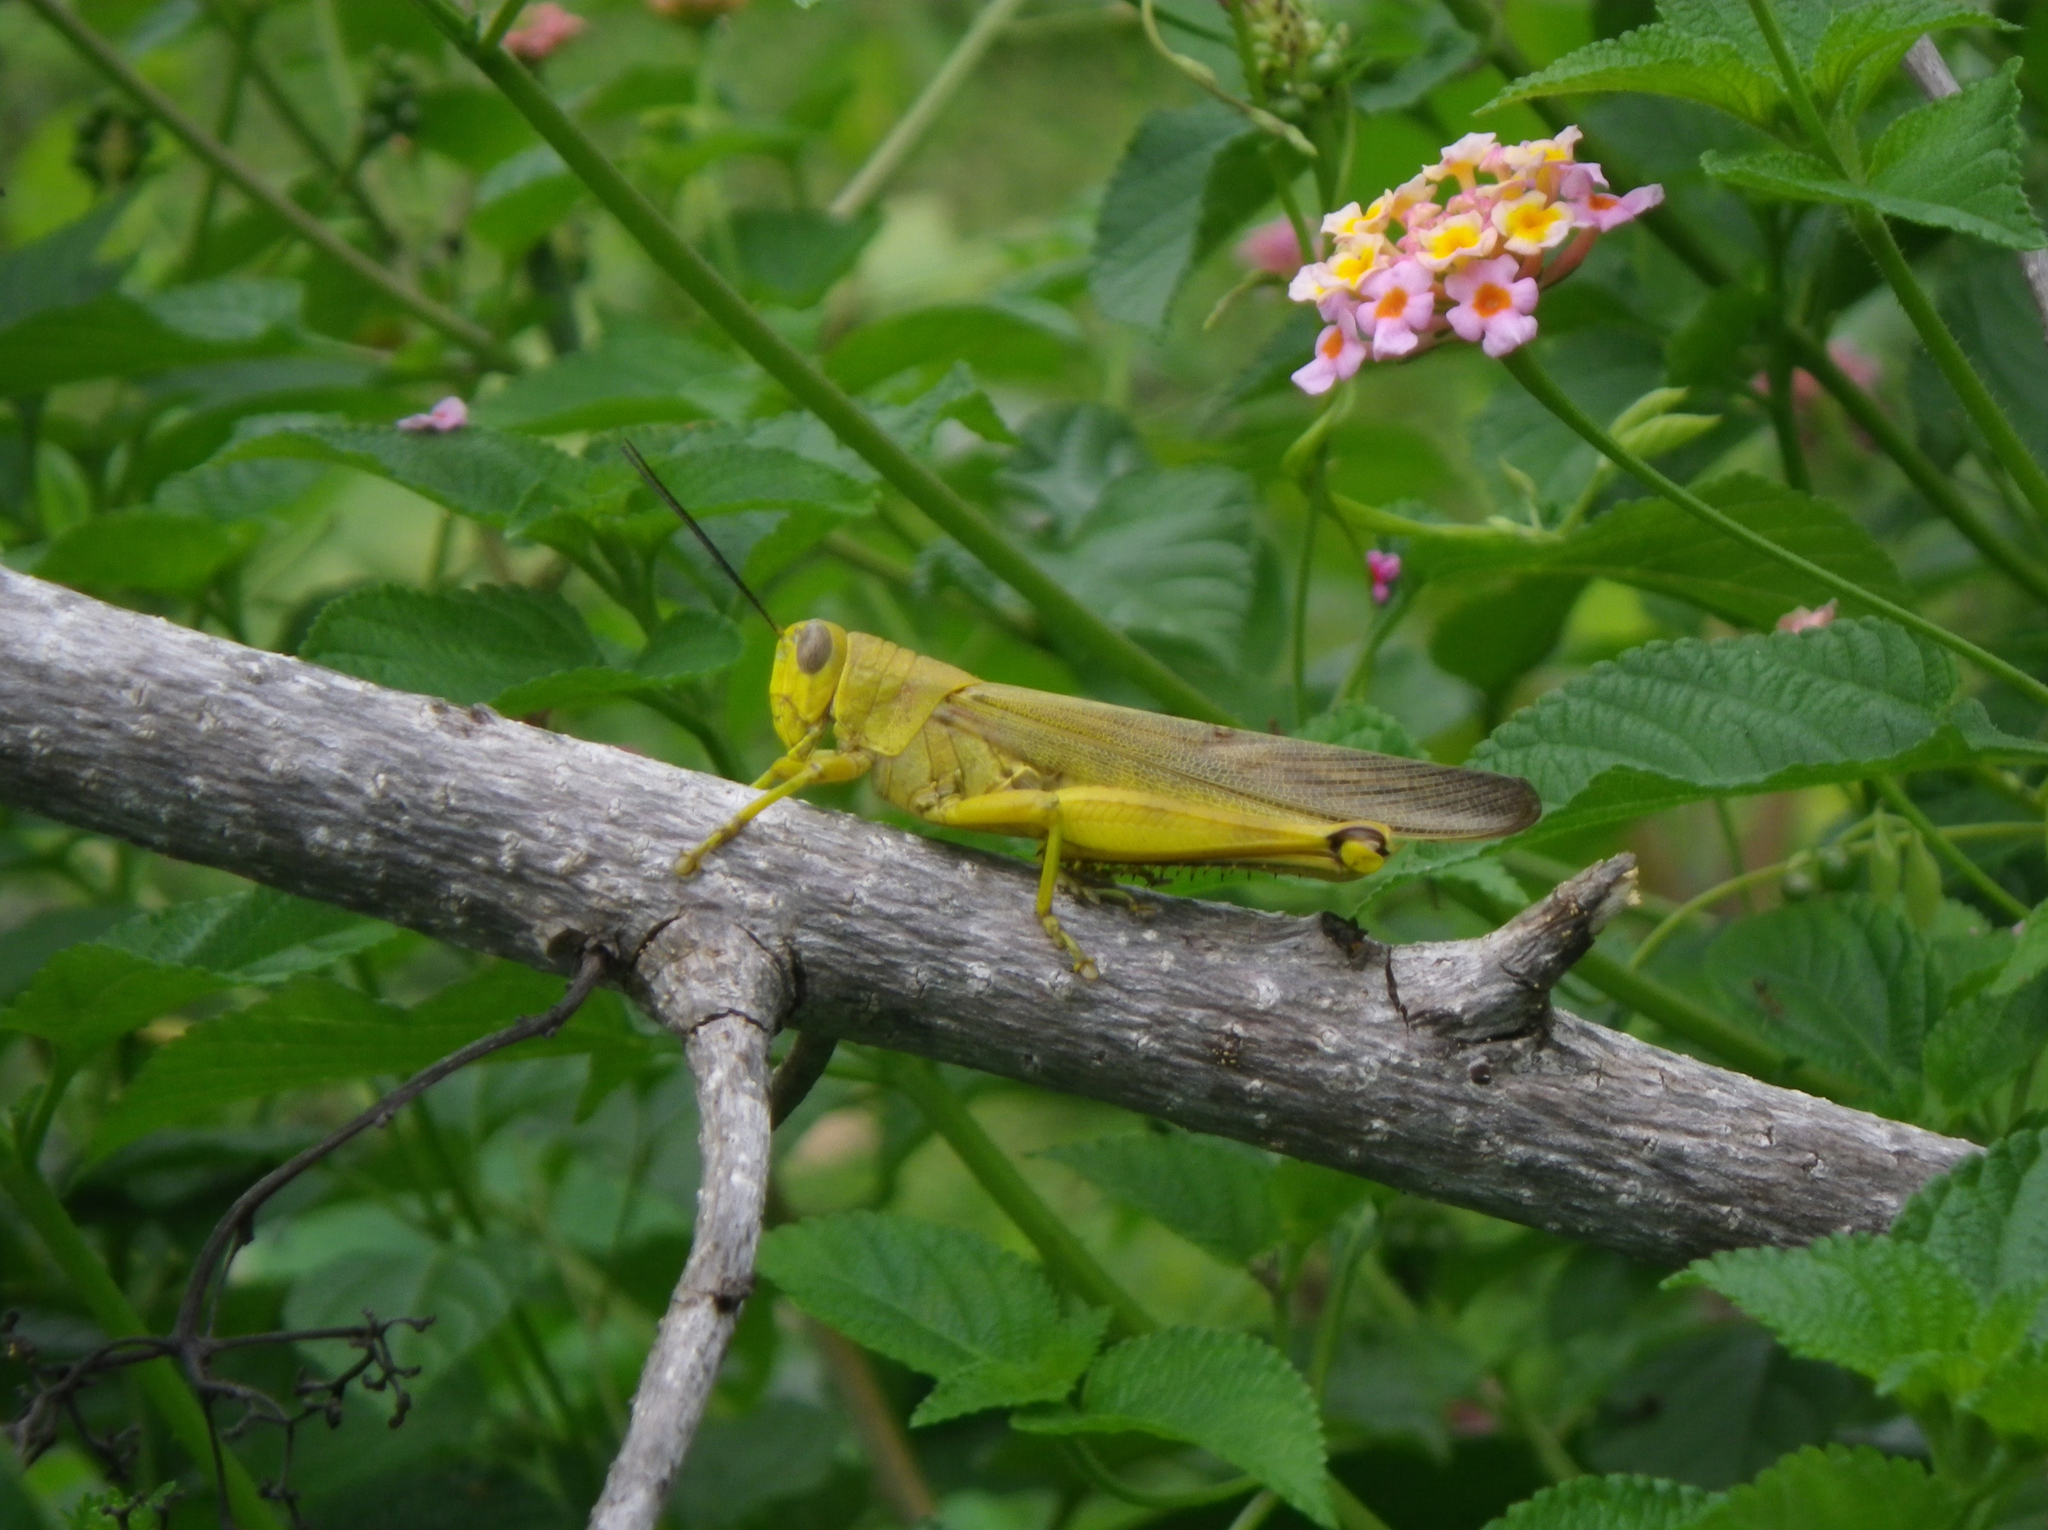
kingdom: Animalia
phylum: Arthropoda
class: Insecta
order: Orthoptera
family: Acrididae
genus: Valanga
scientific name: Valanga nigricornis
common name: Javanese bird grasshopper
